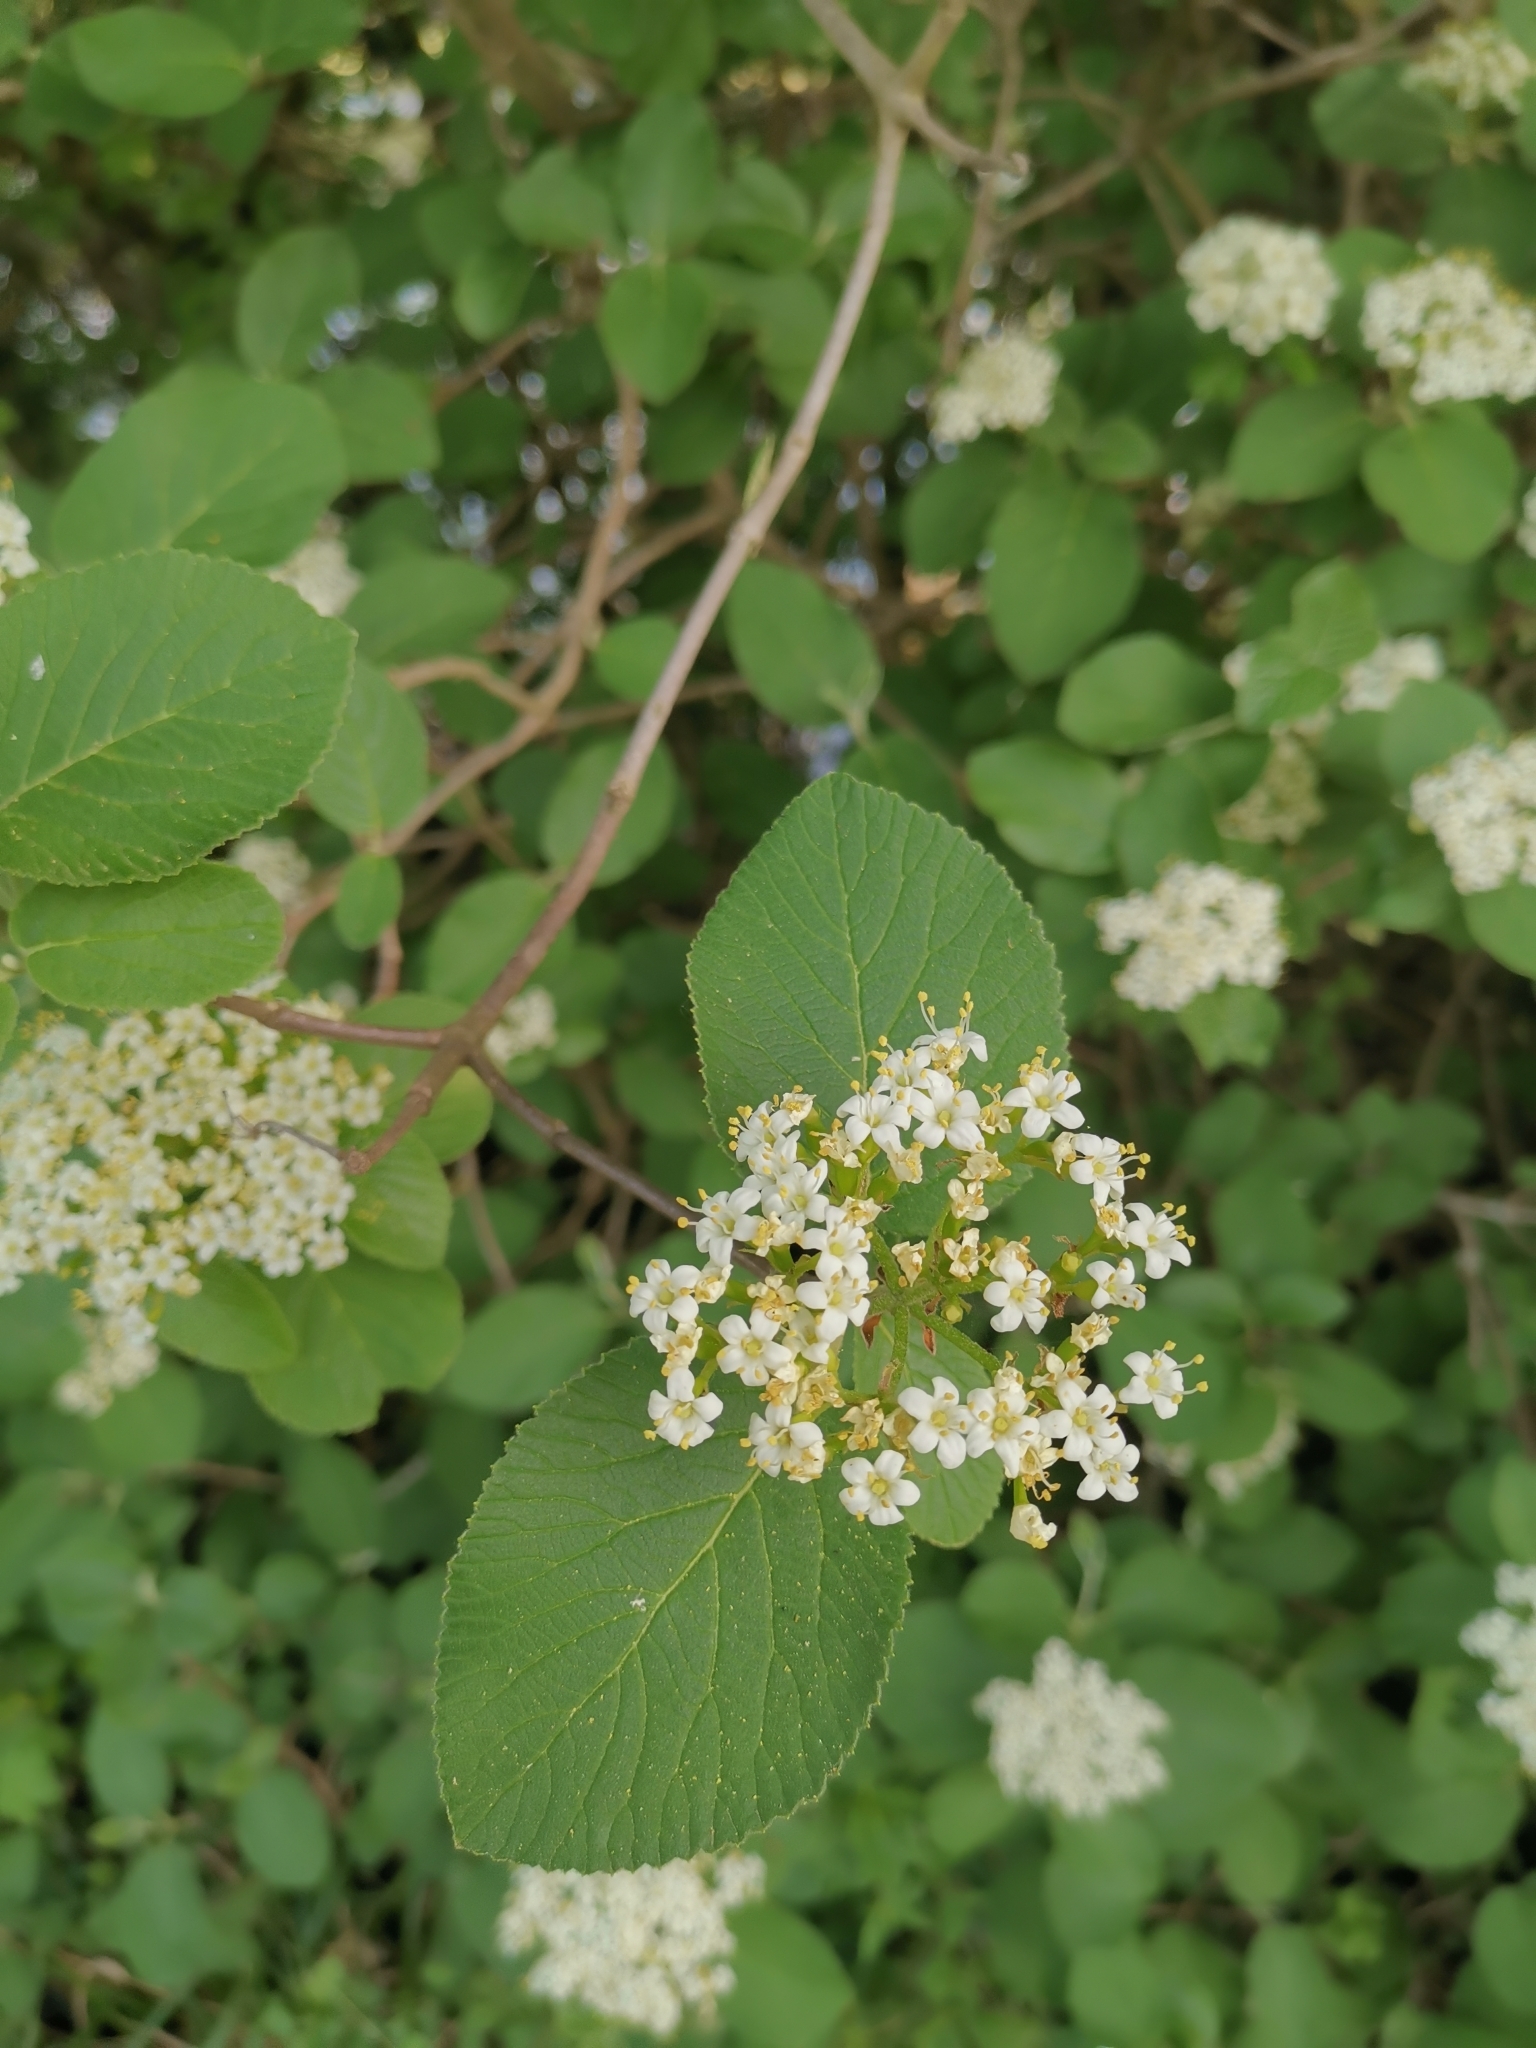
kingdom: Plantae
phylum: Tracheophyta
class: Magnoliopsida
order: Dipsacales
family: Viburnaceae
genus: Viburnum
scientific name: Viburnum lantana
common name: Wayfaring tree
